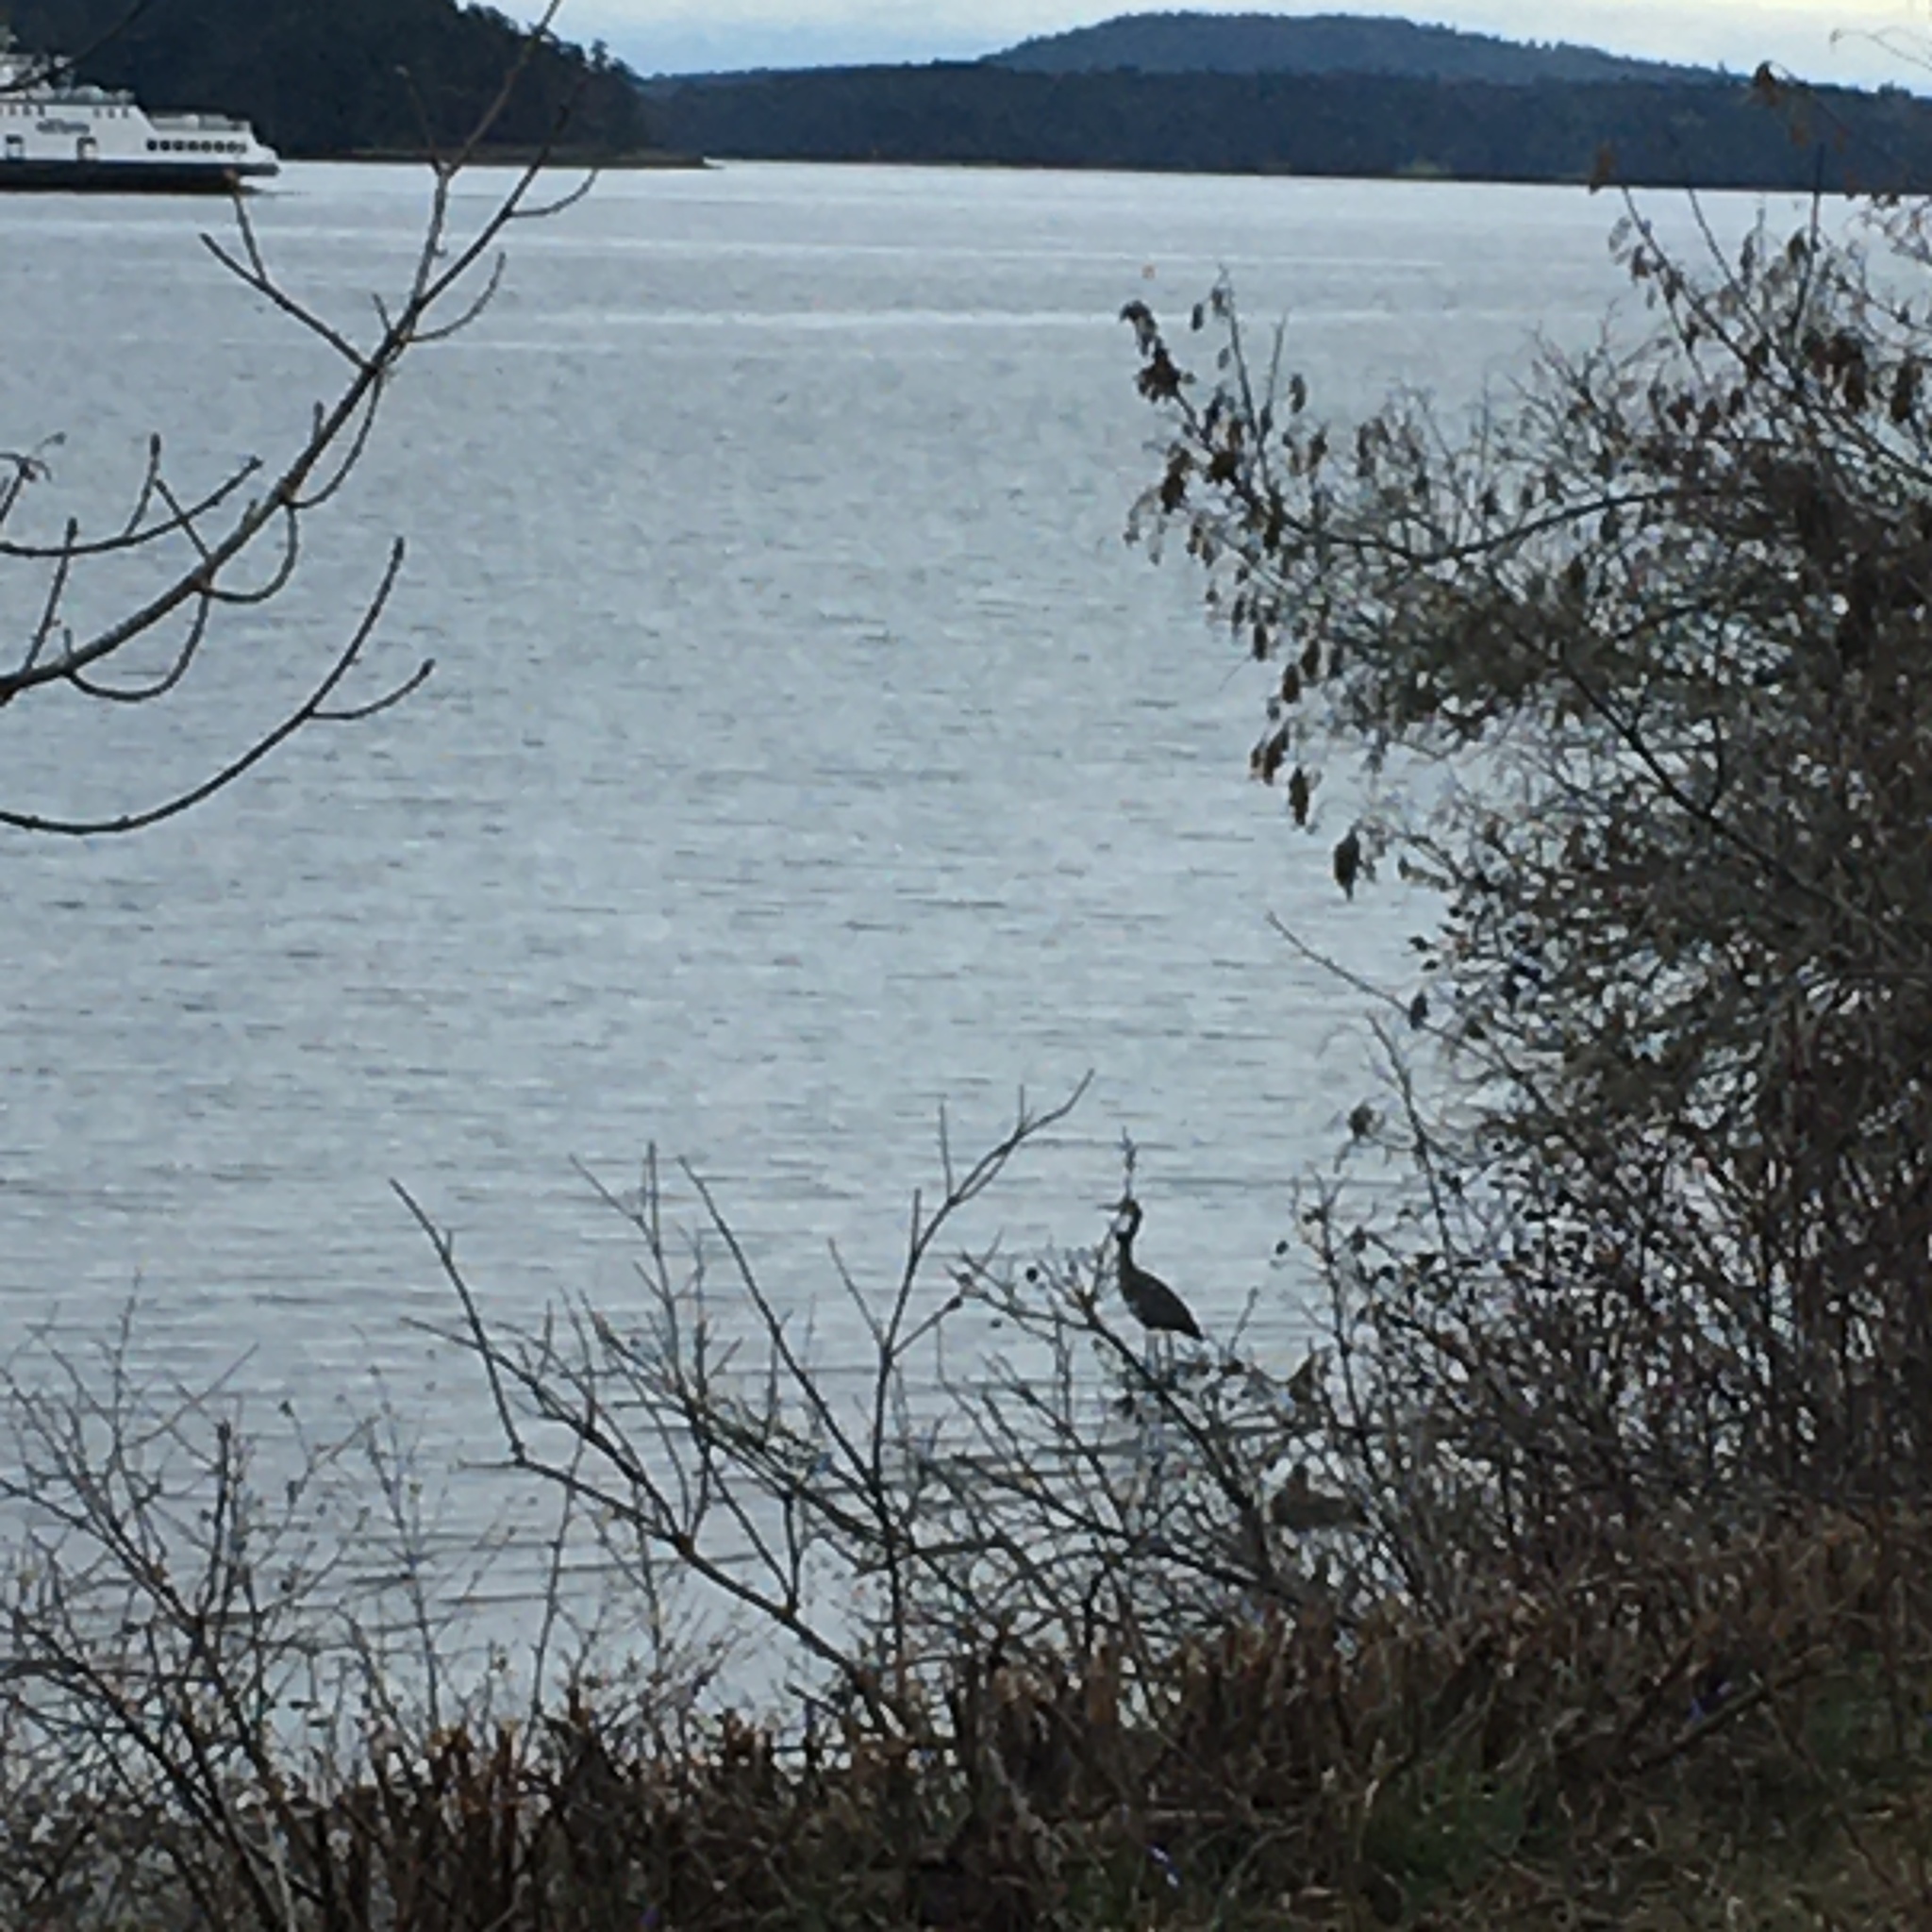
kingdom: Animalia
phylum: Chordata
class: Aves
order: Pelecaniformes
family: Ardeidae
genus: Ardea
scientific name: Ardea herodias
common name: Great blue heron
